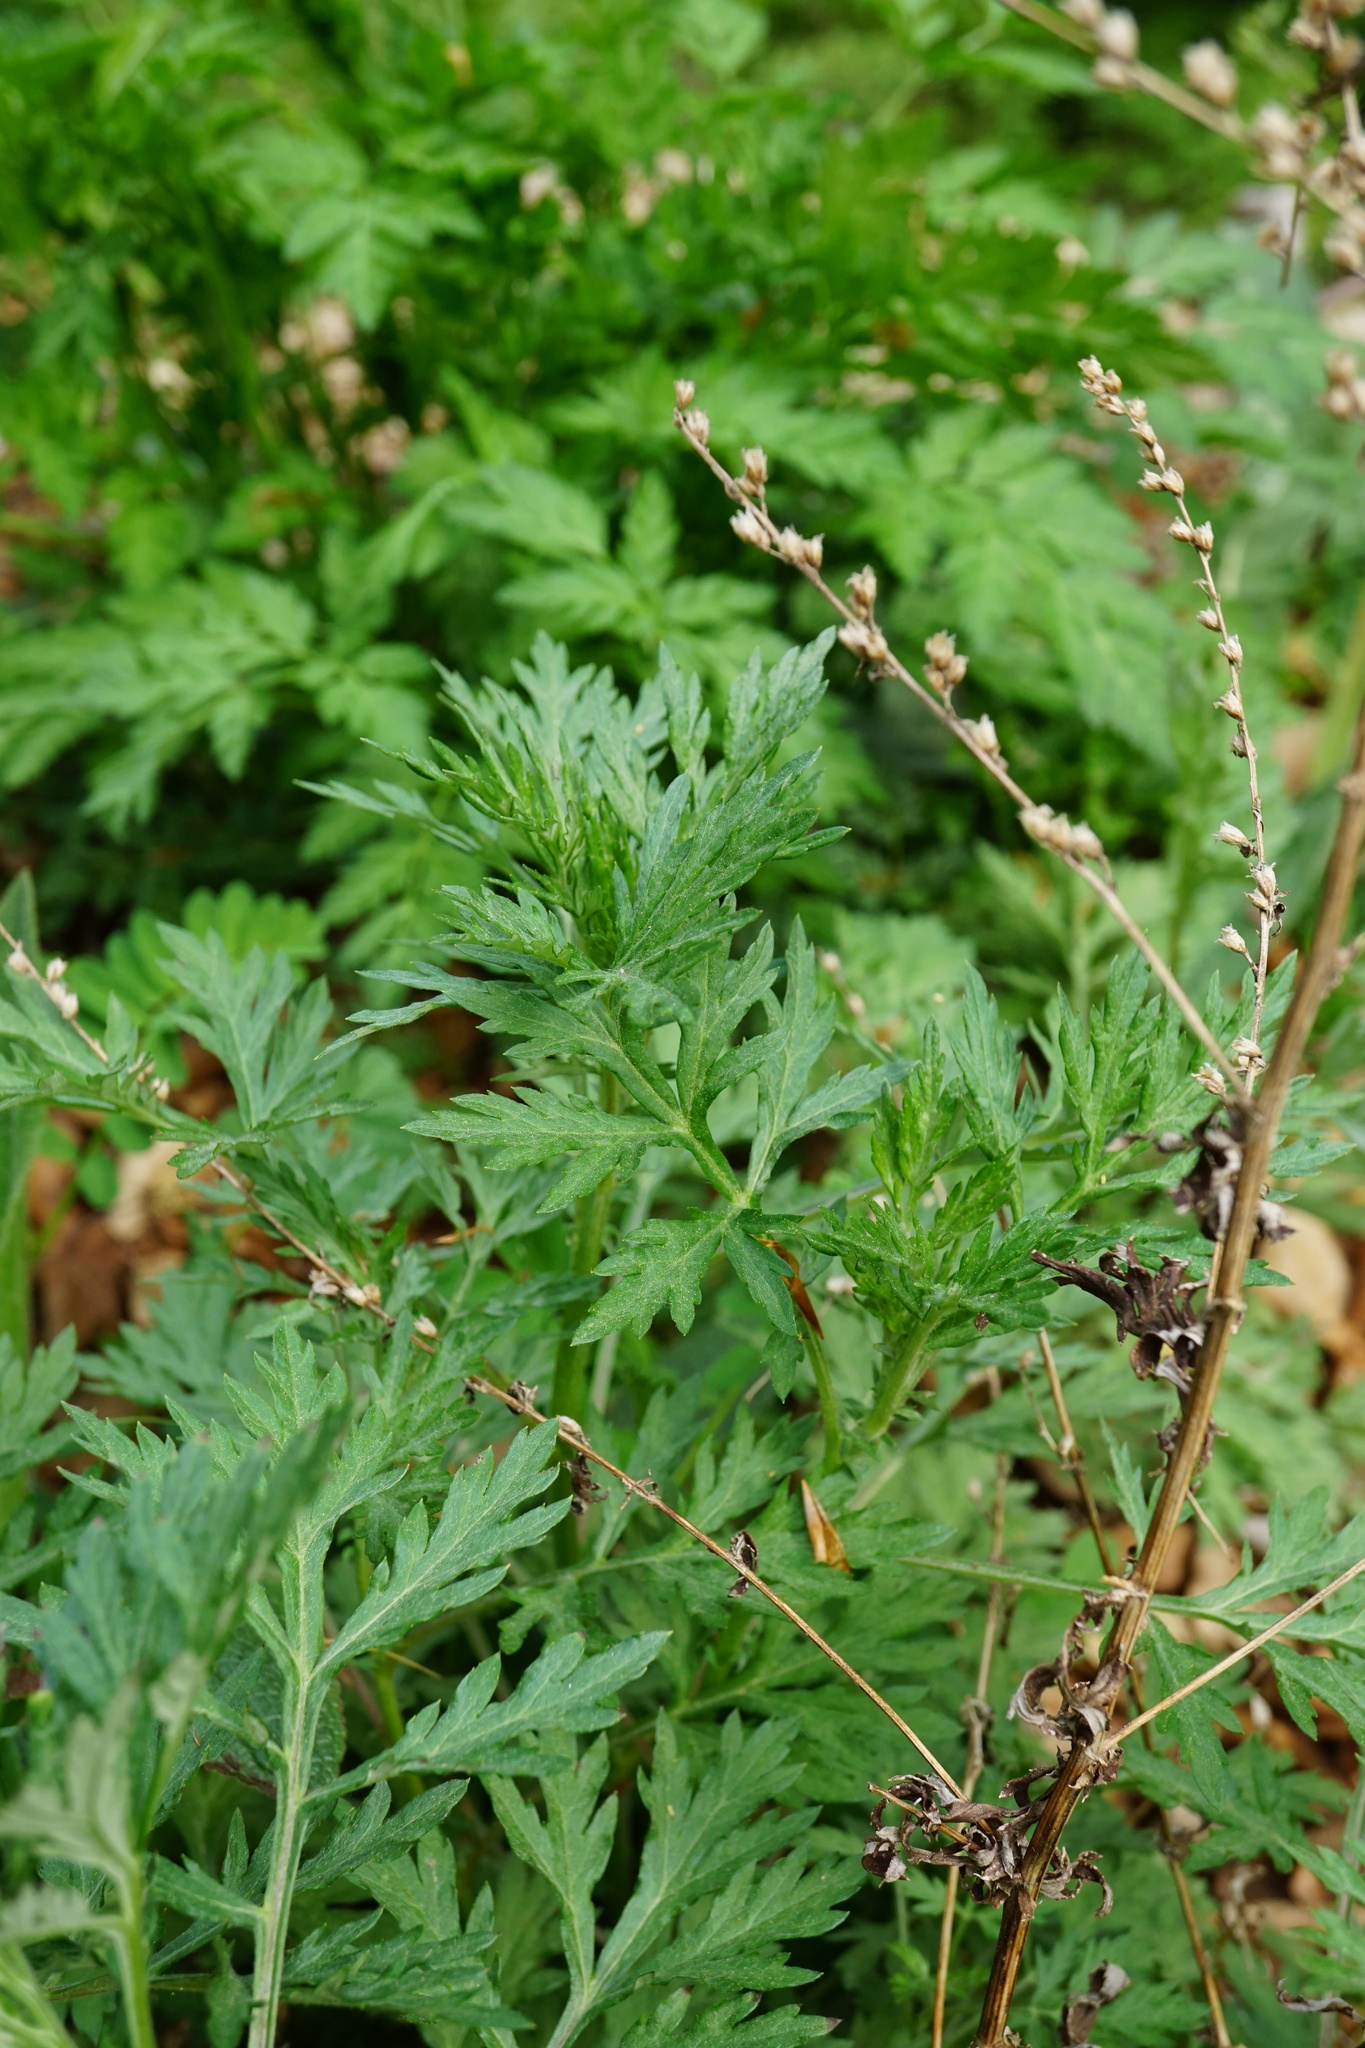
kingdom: Plantae
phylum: Tracheophyta
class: Magnoliopsida
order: Asterales
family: Asteraceae
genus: Artemisia
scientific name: Artemisia vulgaris
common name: Mugwort
